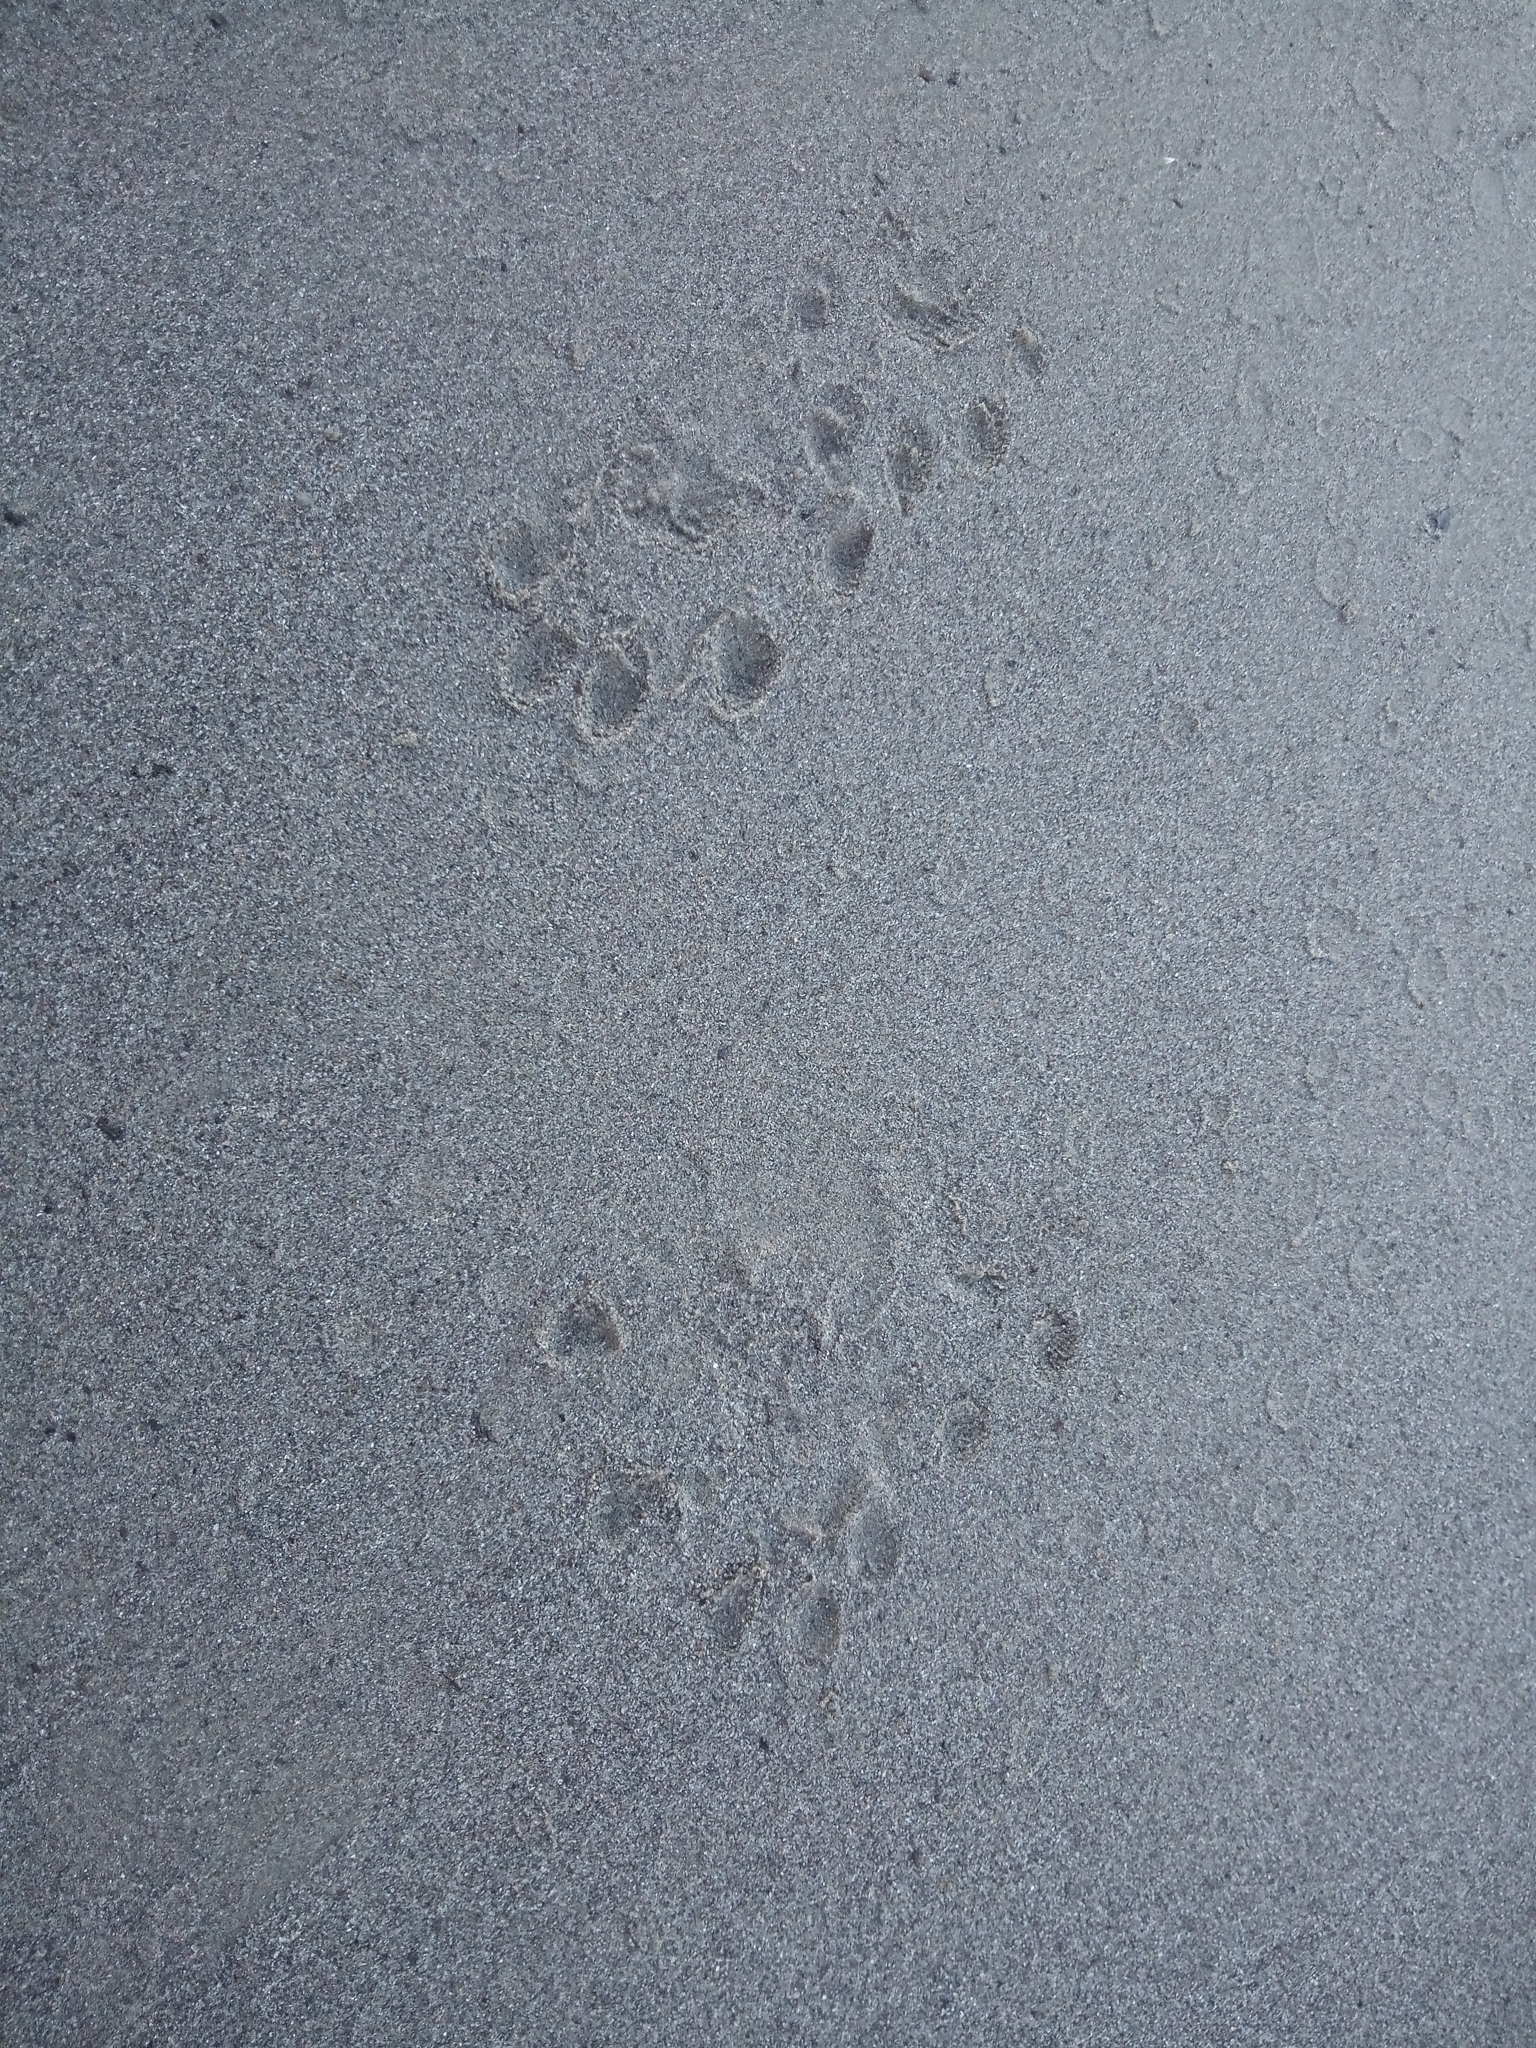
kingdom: Animalia
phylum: Chordata
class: Mammalia
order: Carnivora
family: Mustelidae
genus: Lontra
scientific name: Lontra canadensis
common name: North american river otter
